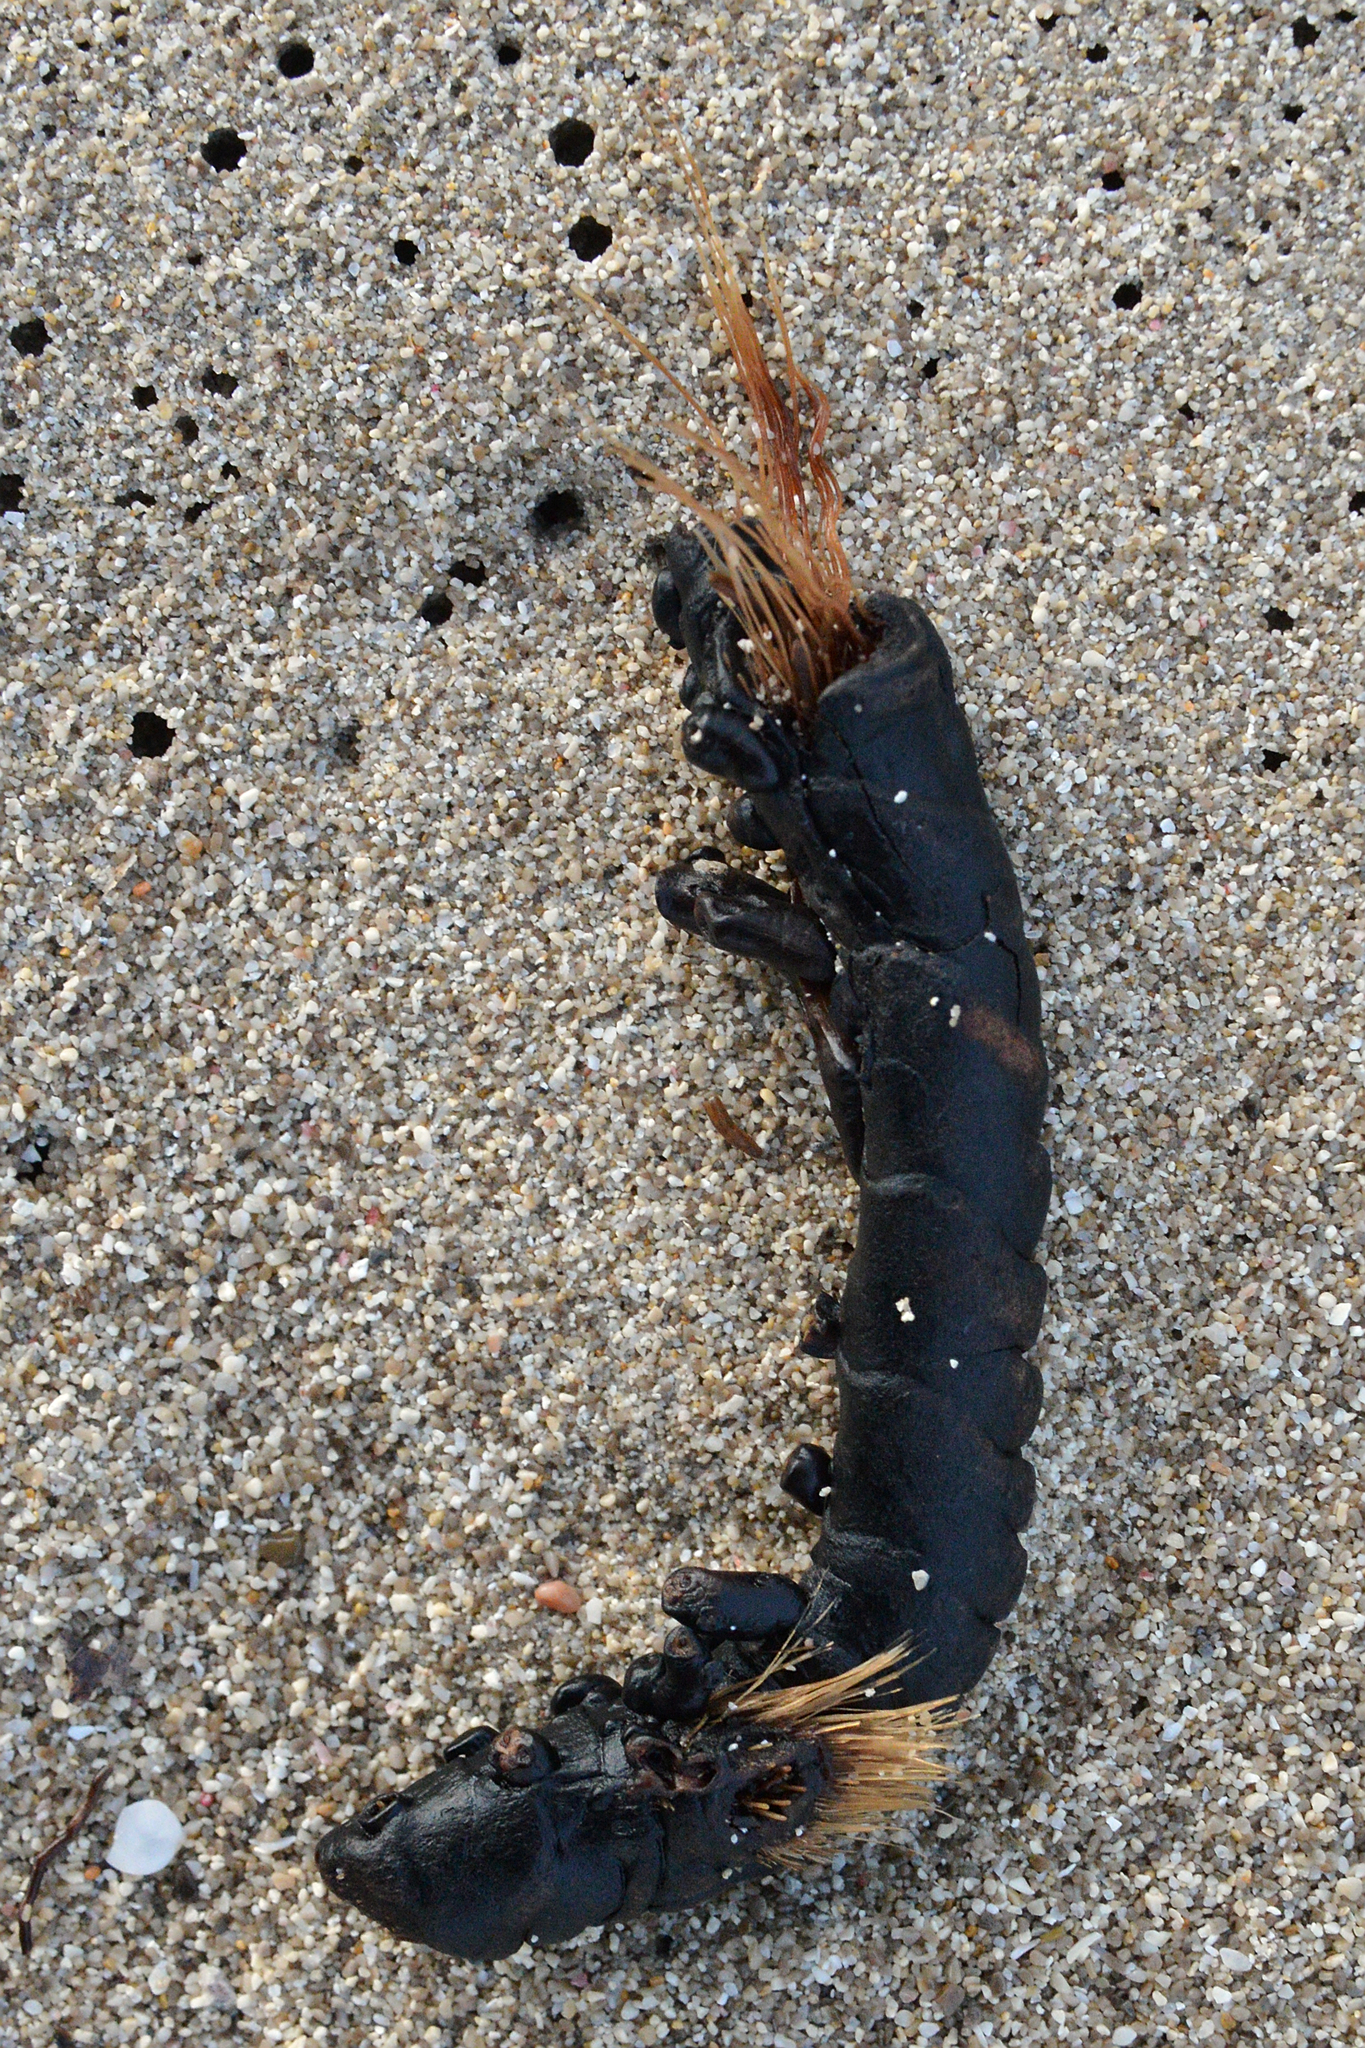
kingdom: Plantae
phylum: Tracheophyta
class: Liliopsida
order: Alismatales
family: Posidoniaceae
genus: Posidonia
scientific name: Posidonia oceanica
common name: Mediterranean tapeweed
